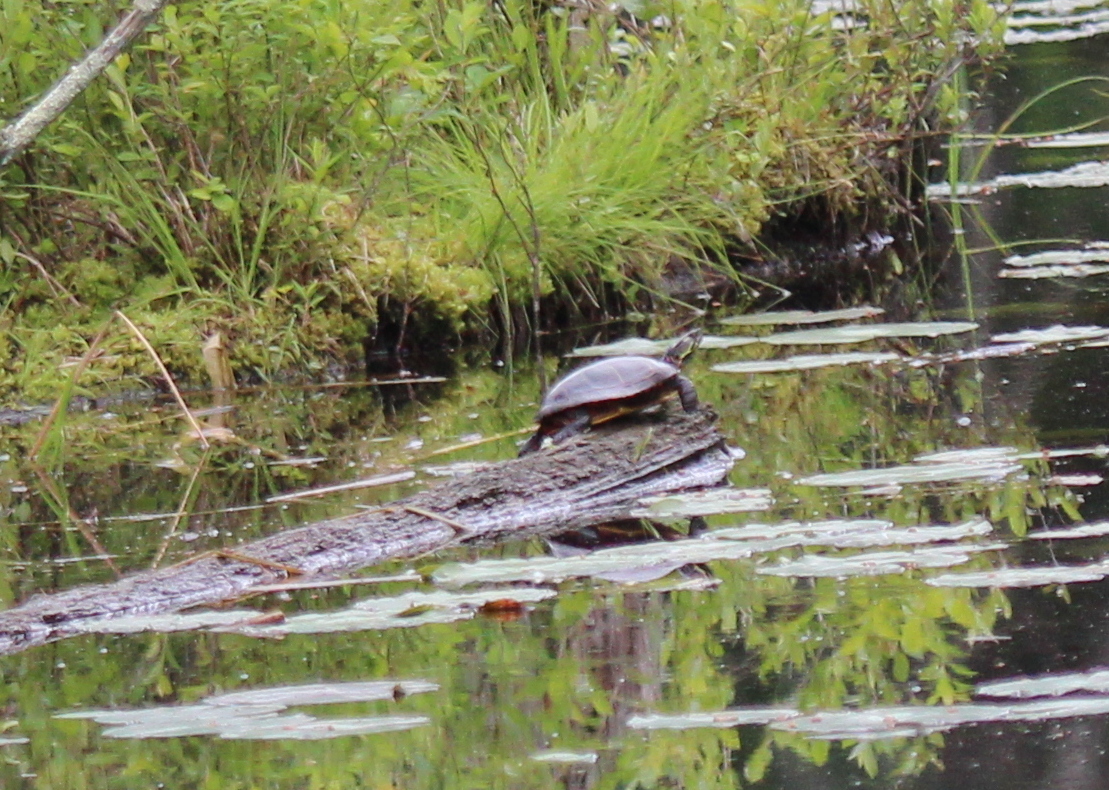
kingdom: Animalia
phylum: Chordata
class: Testudines
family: Emydidae
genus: Chrysemys
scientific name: Chrysemys picta
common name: Painted turtle
